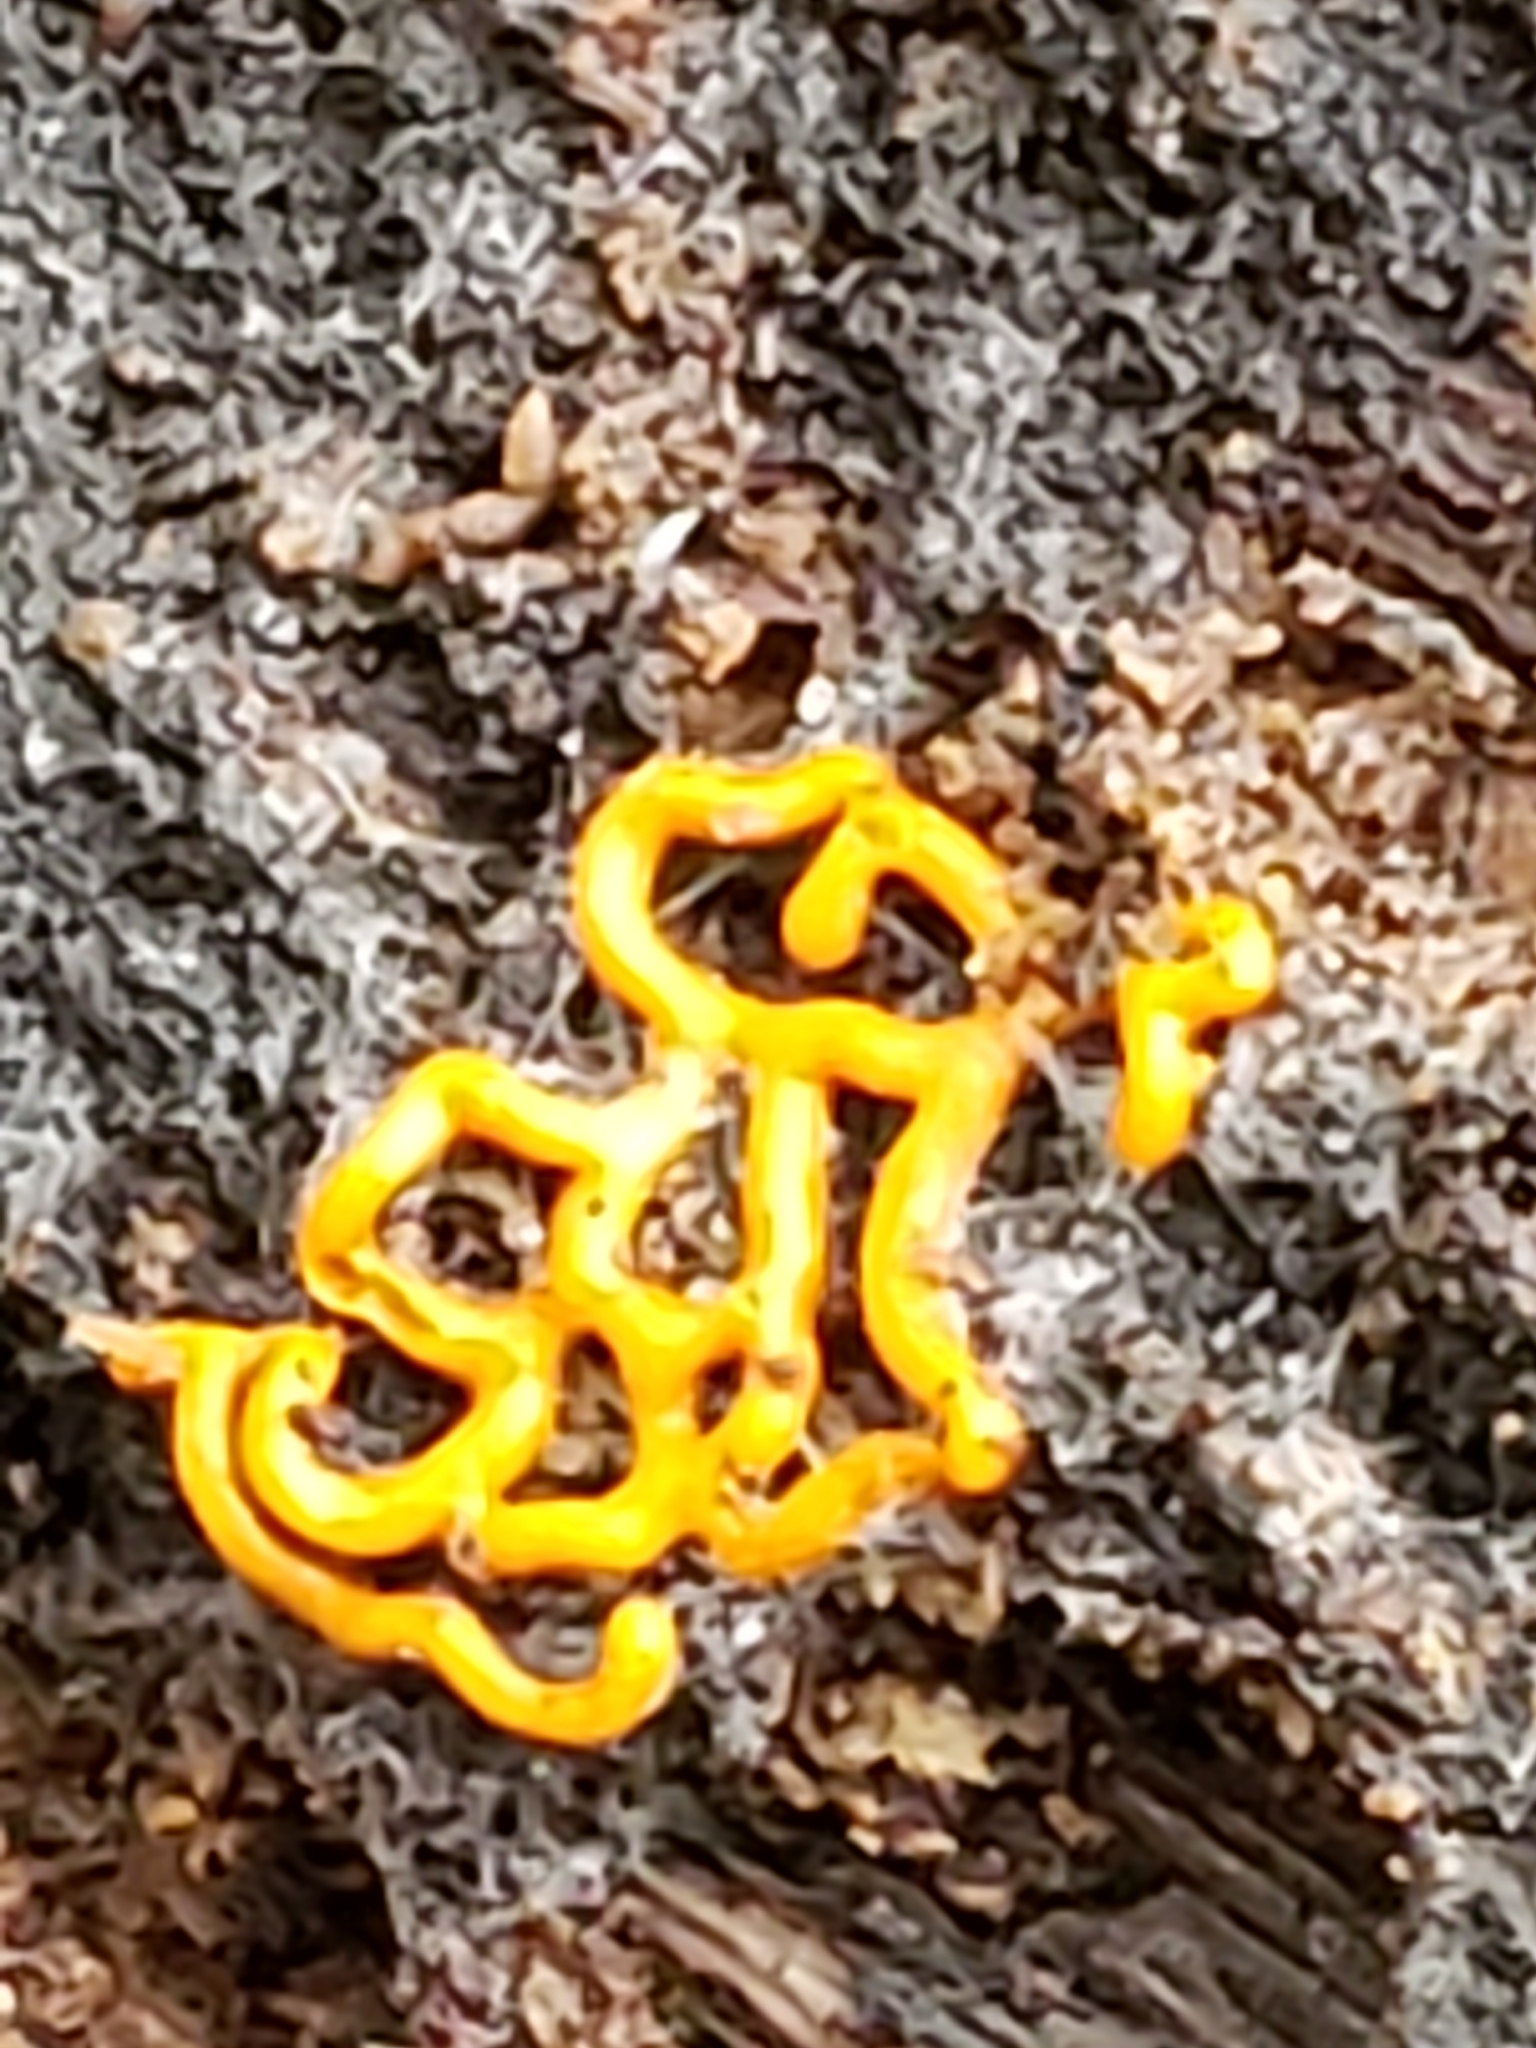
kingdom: Protozoa
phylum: Mycetozoa
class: Myxomycetes
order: Trichiales
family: Arcyriaceae
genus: Hemitrichia
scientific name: Hemitrichia serpula
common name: Pretzel slime mold
